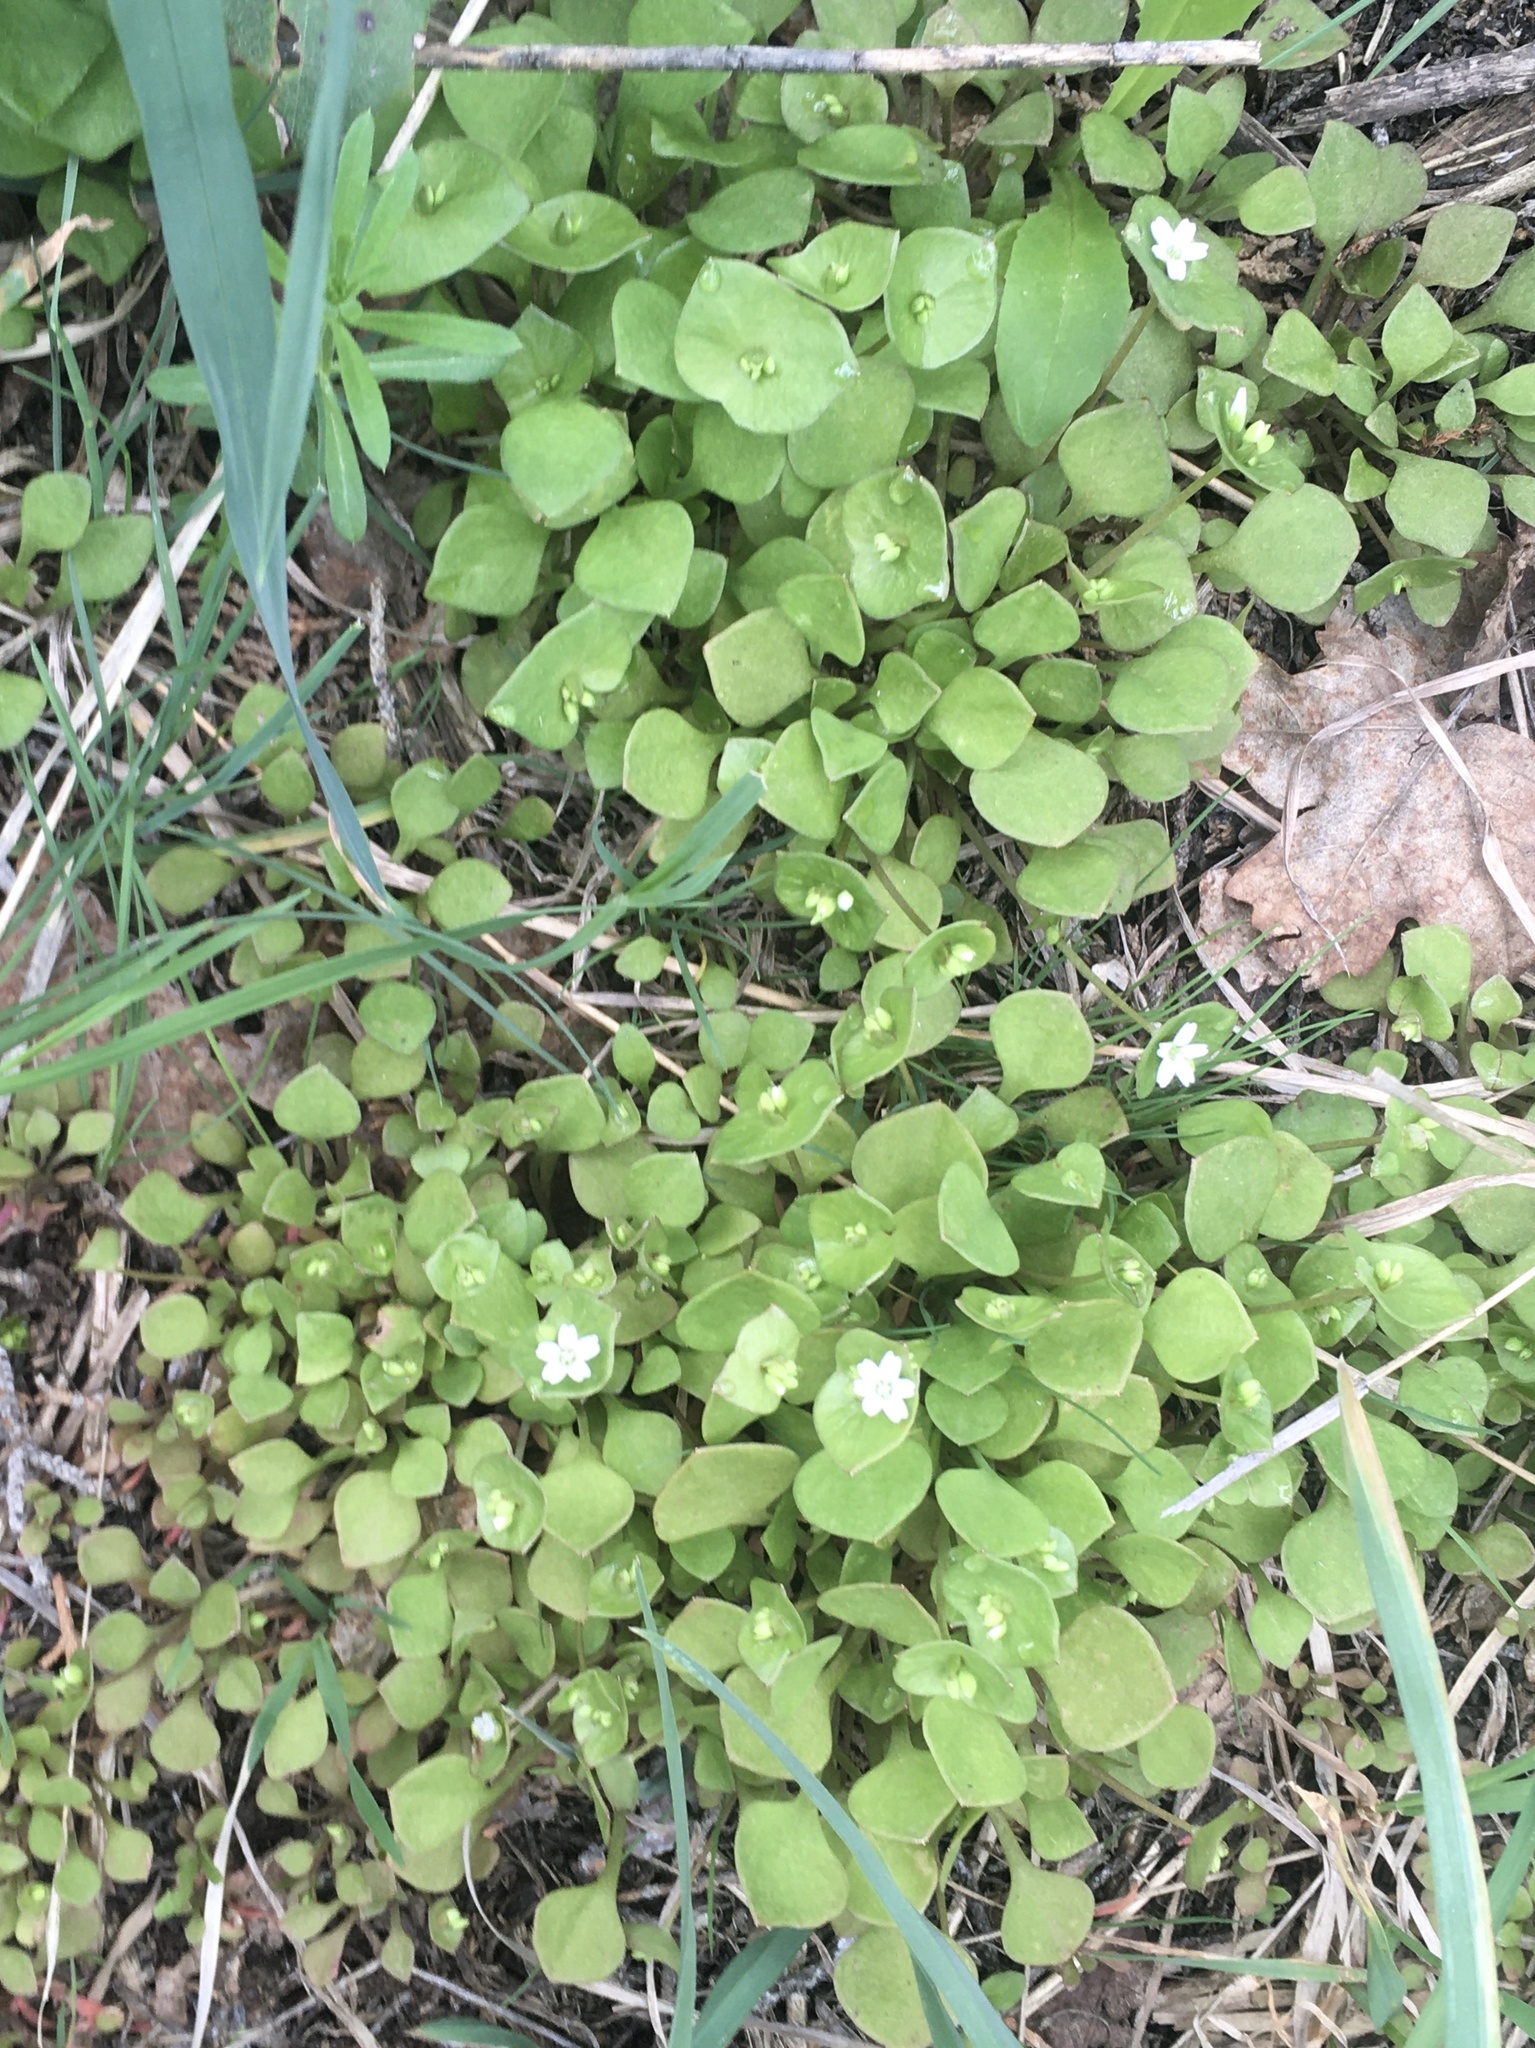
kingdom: Plantae
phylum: Tracheophyta
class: Magnoliopsida
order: Caryophyllales
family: Montiaceae
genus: Claytonia
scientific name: Claytonia perfoliata
